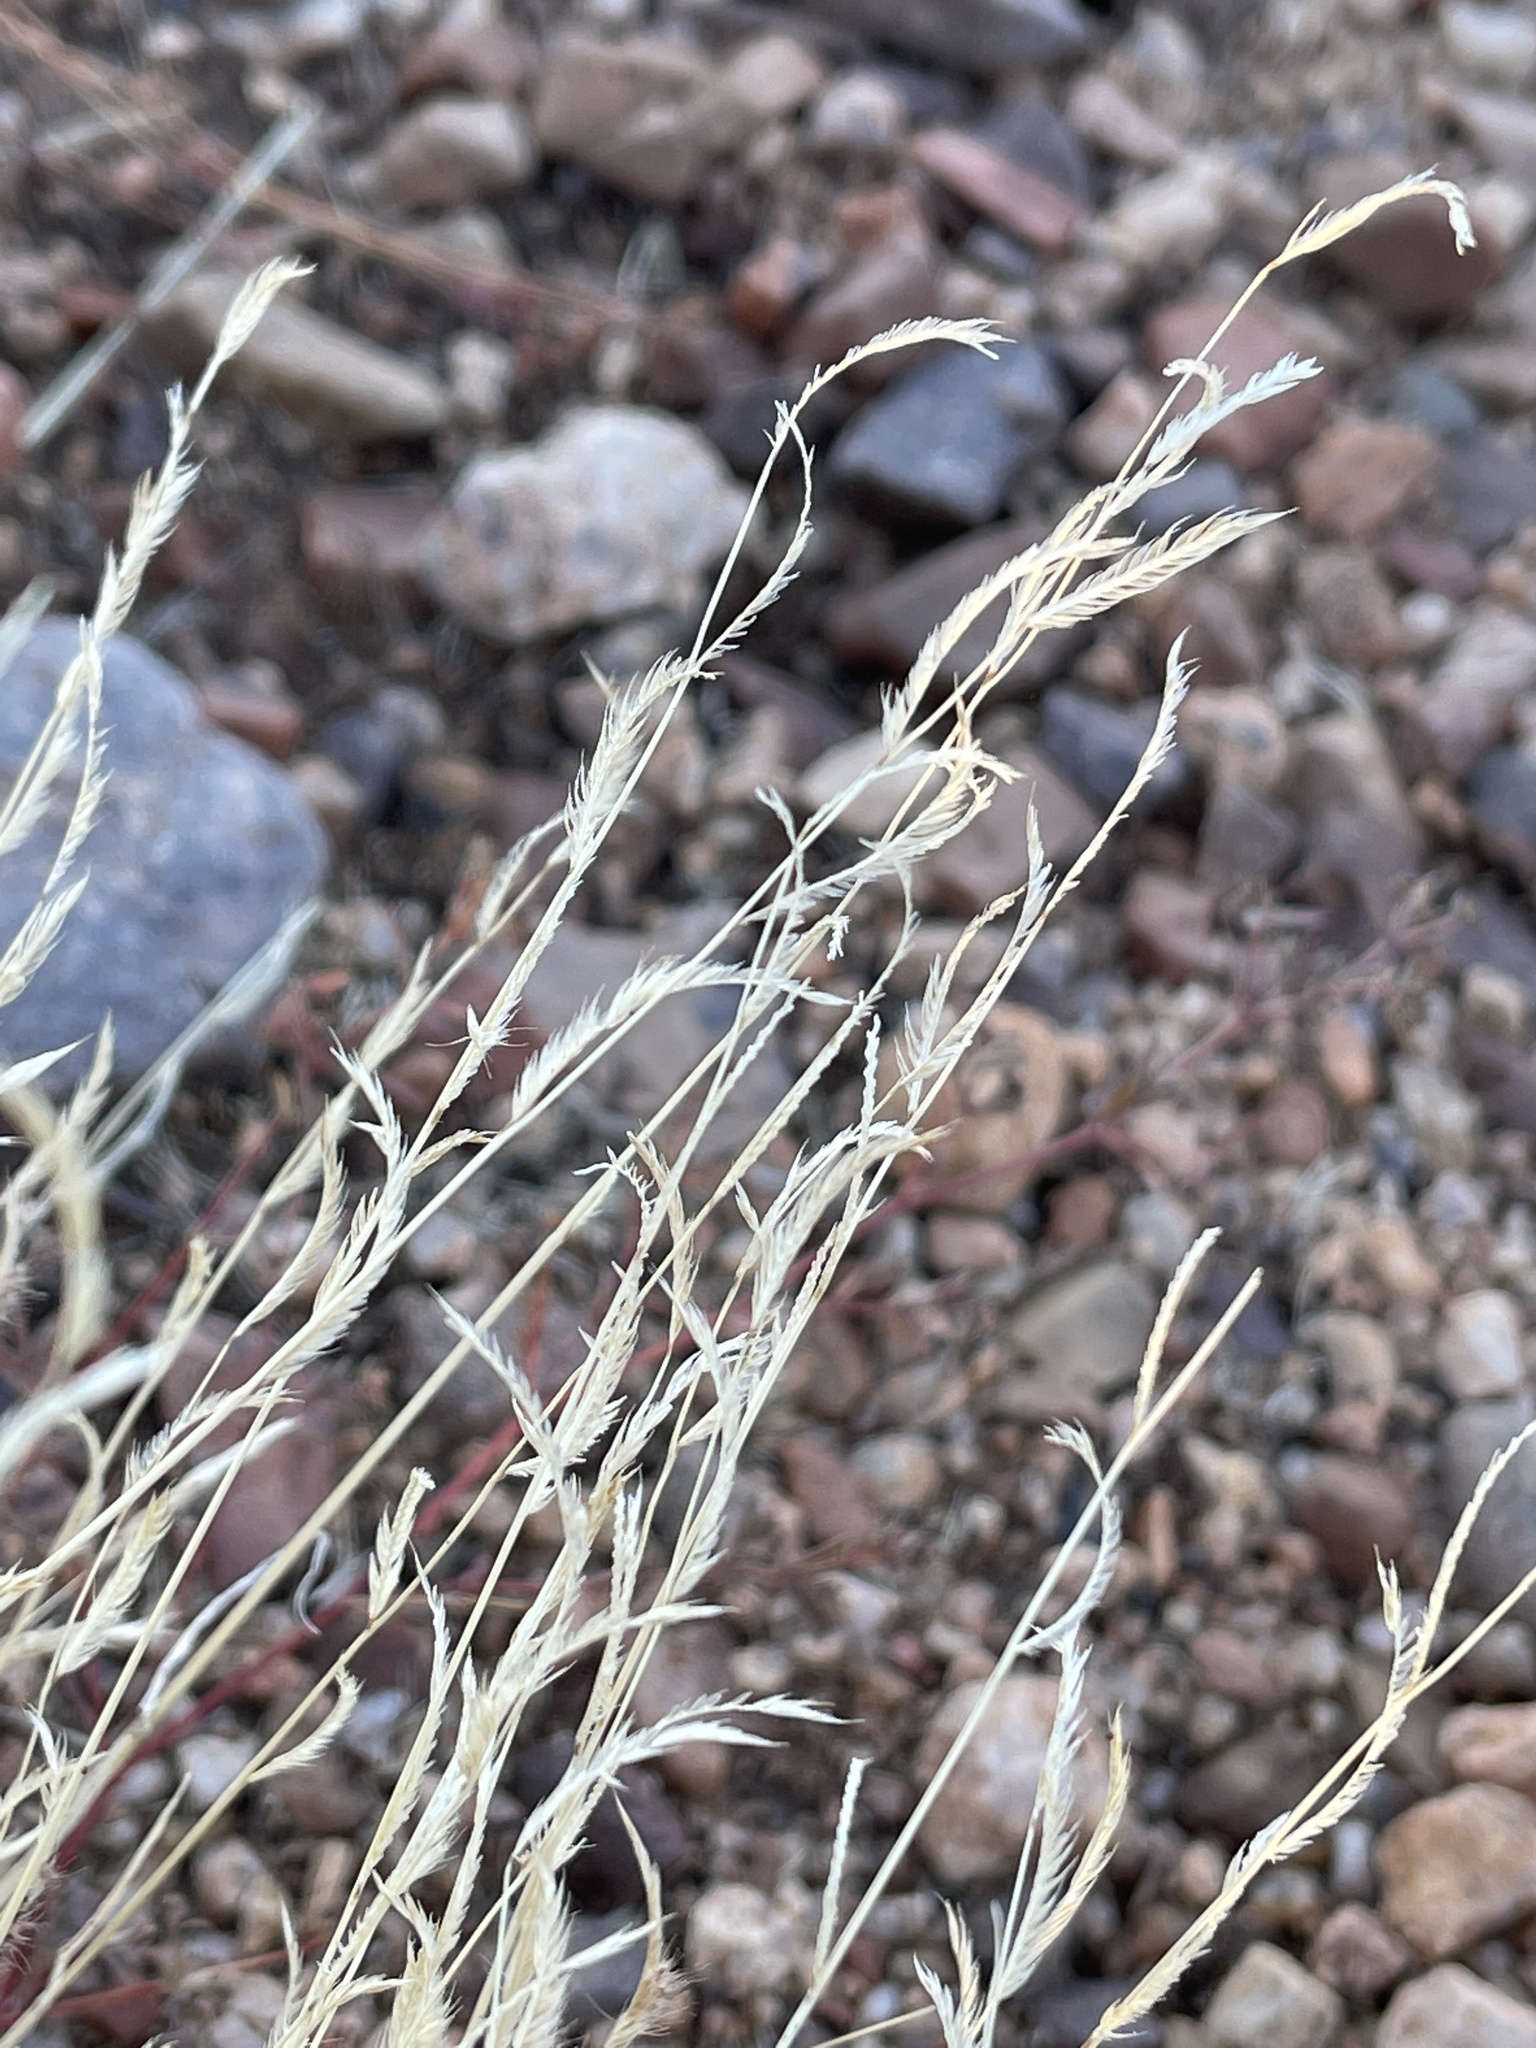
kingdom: Plantae
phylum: Tracheophyta
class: Liliopsida
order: Poales
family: Poaceae
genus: Bouteloua
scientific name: Bouteloua barbata
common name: Six-weeks grama
